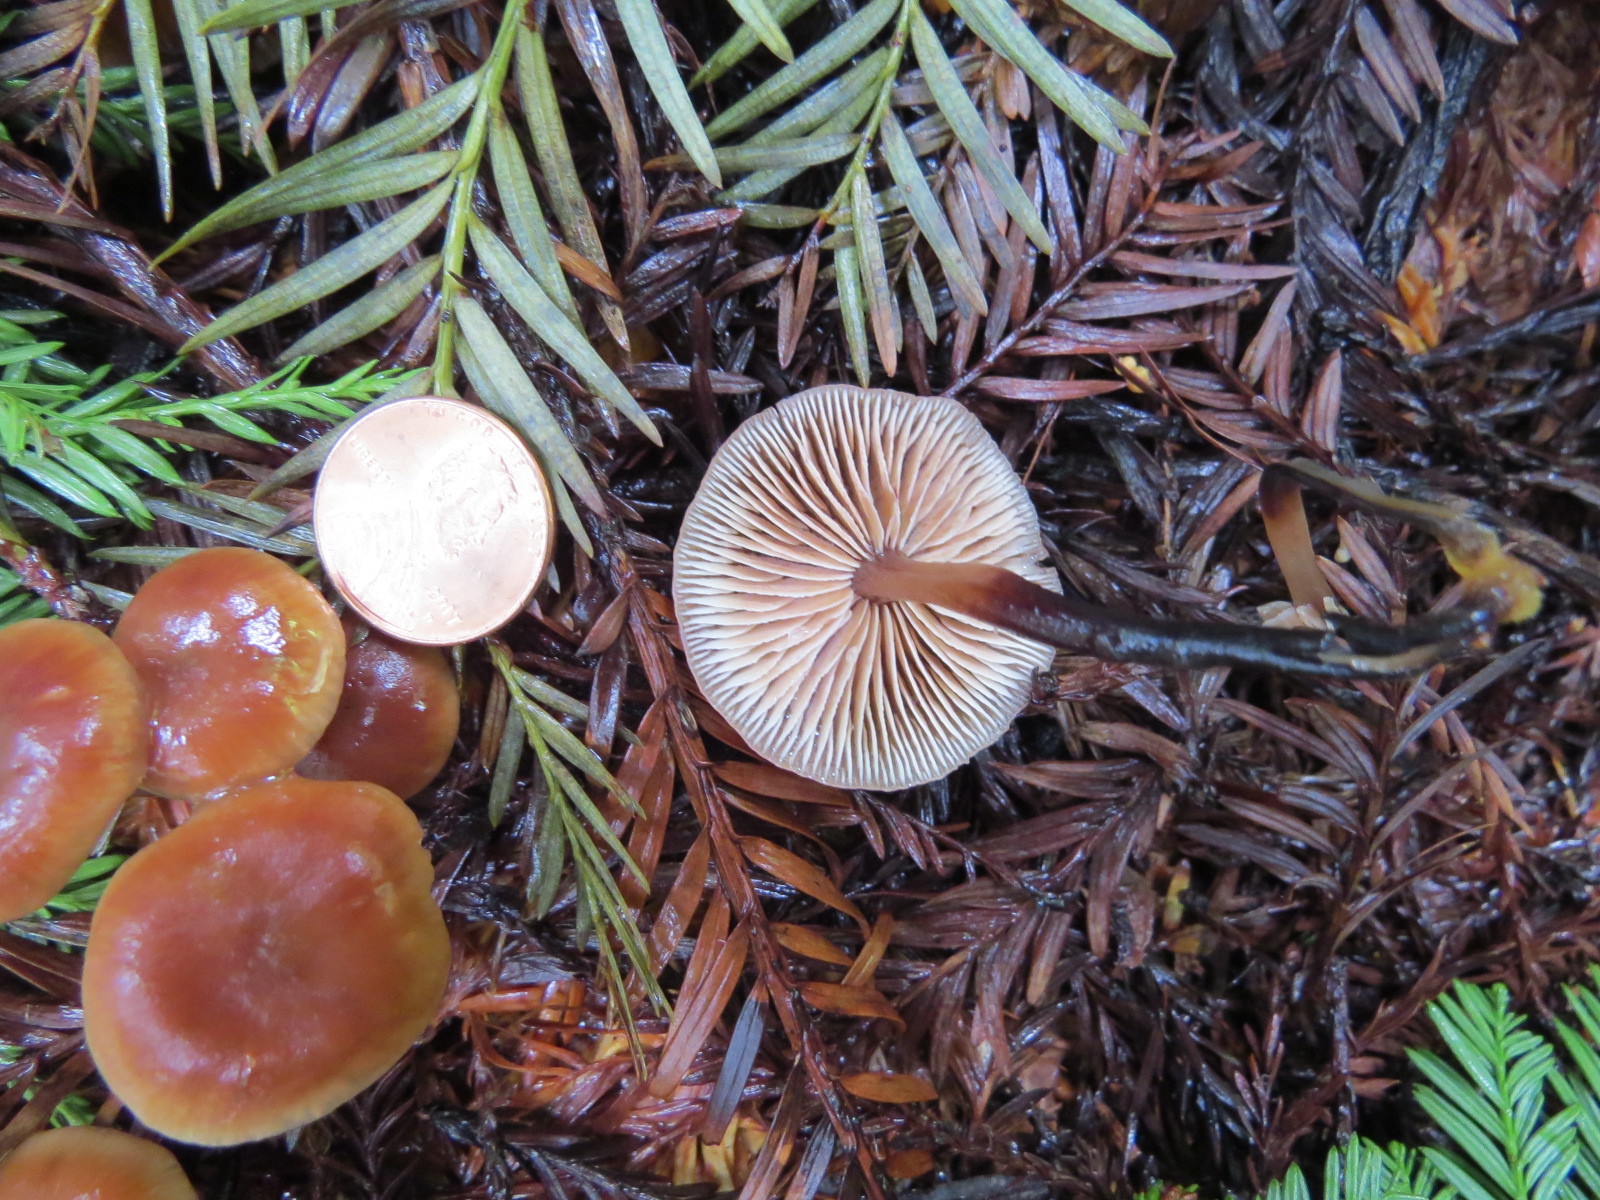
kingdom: Fungi
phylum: Basidiomycota
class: Agaricomycetes
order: Agaricales
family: Omphalotaceae
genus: Gymnopus
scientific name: Gymnopus brassicolens
